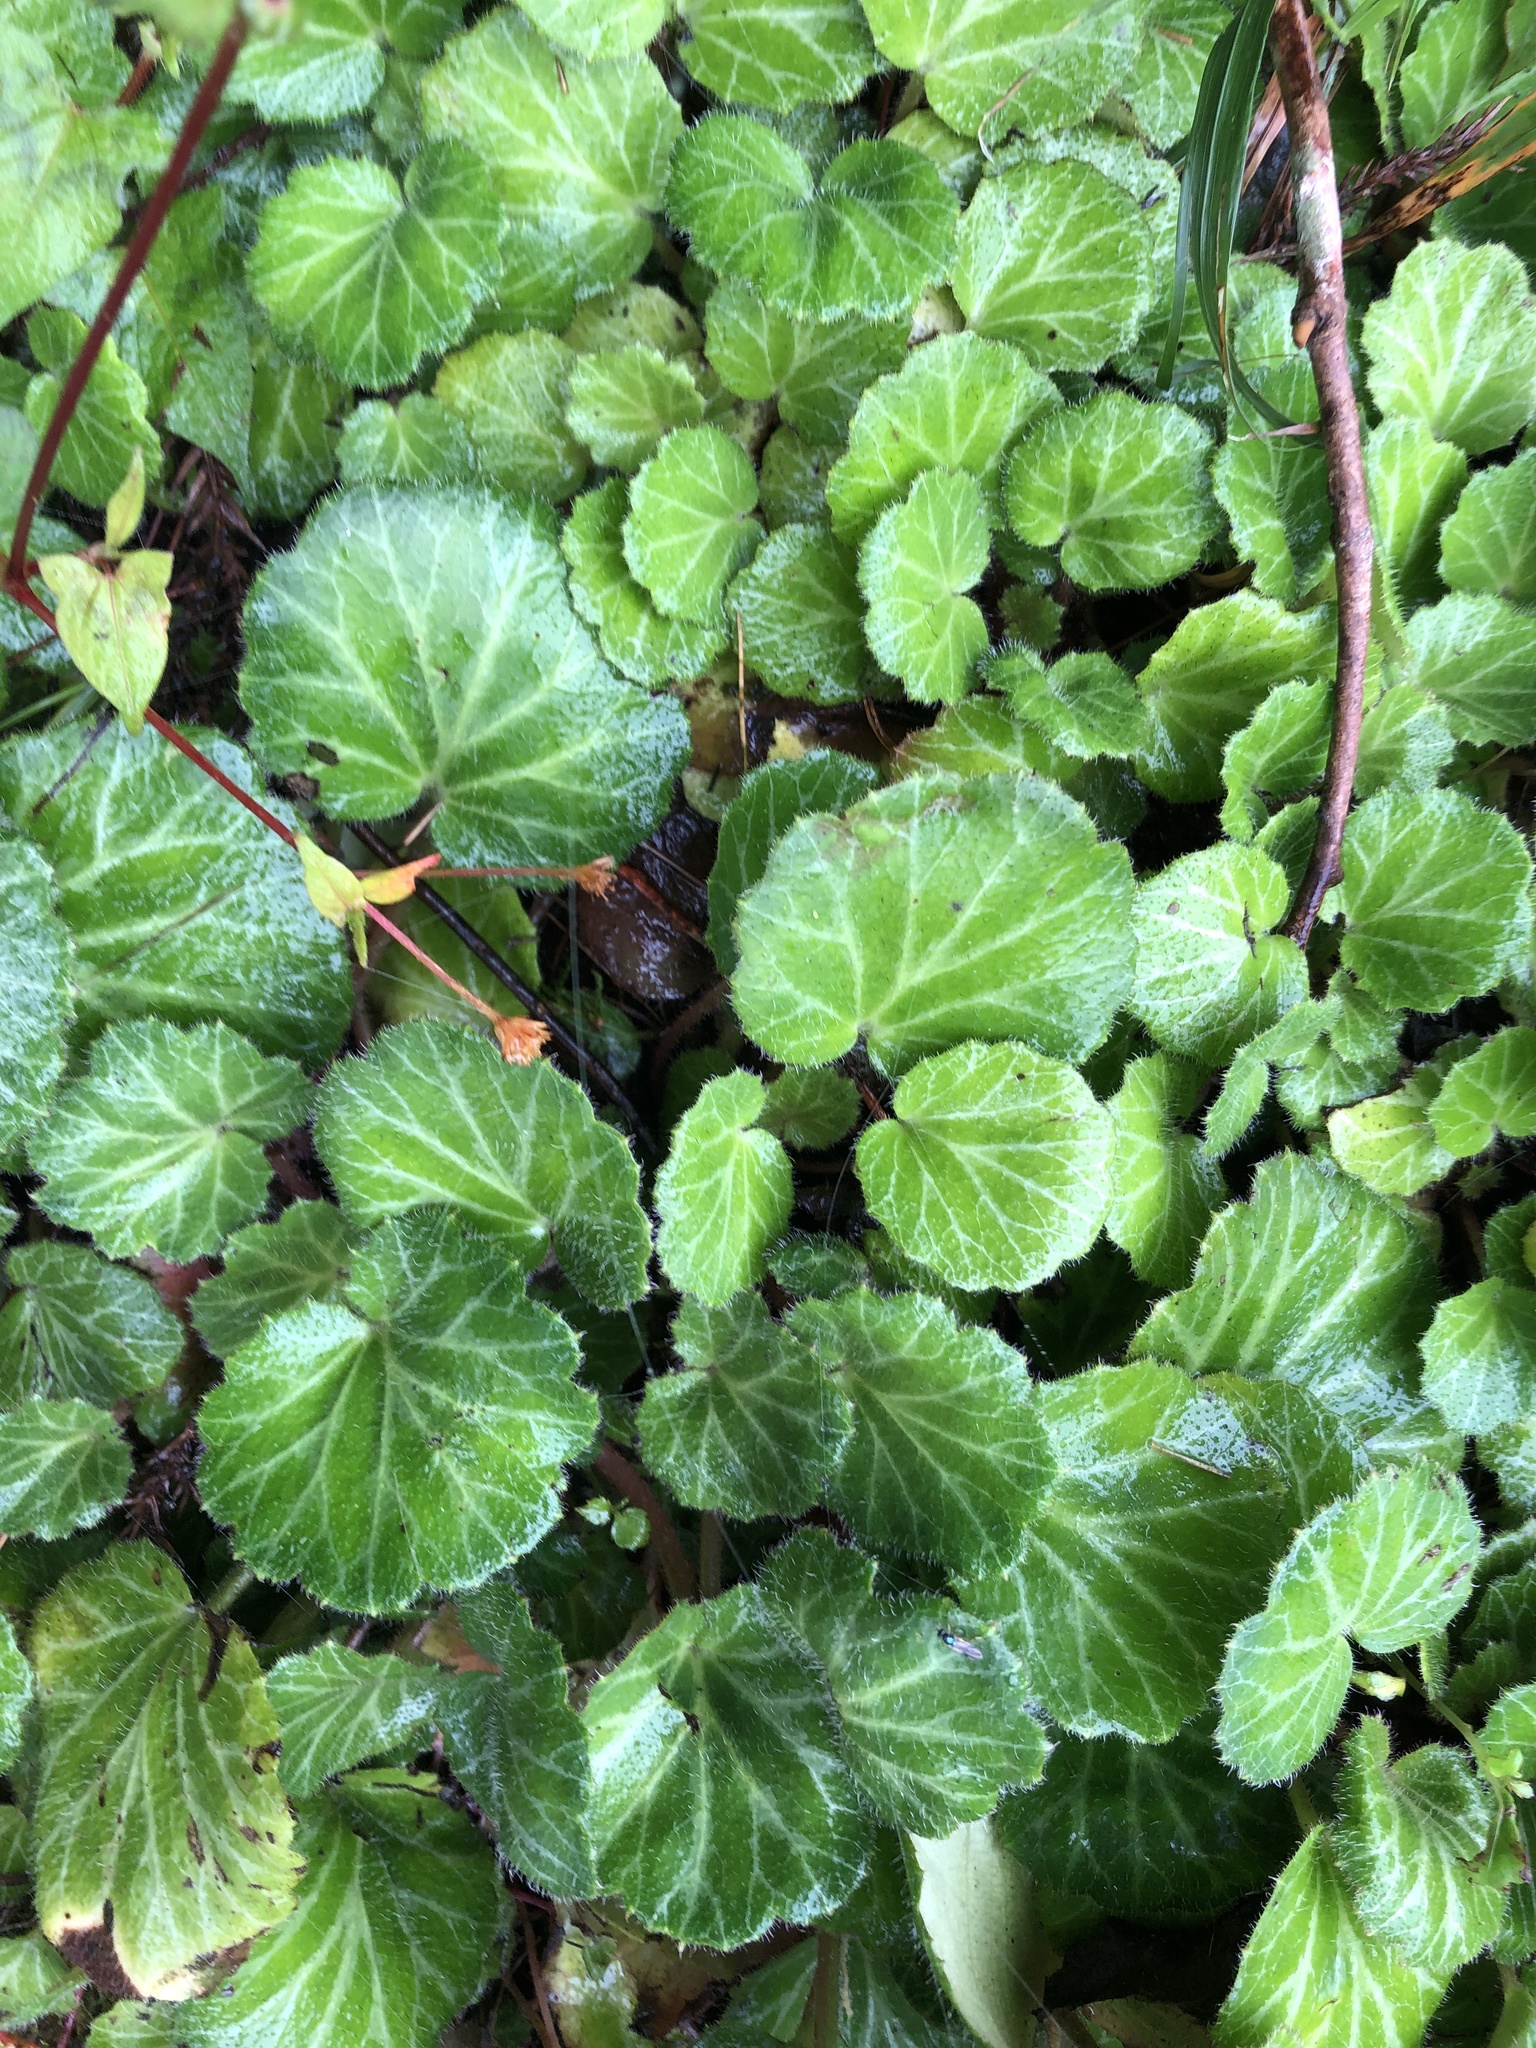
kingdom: Plantae
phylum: Tracheophyta
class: Magnoliopsida
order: Saxifragales
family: Saxifragaceae
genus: Saxifraga
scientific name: Saxifraga stolonifera
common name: Creeping saxifrage
